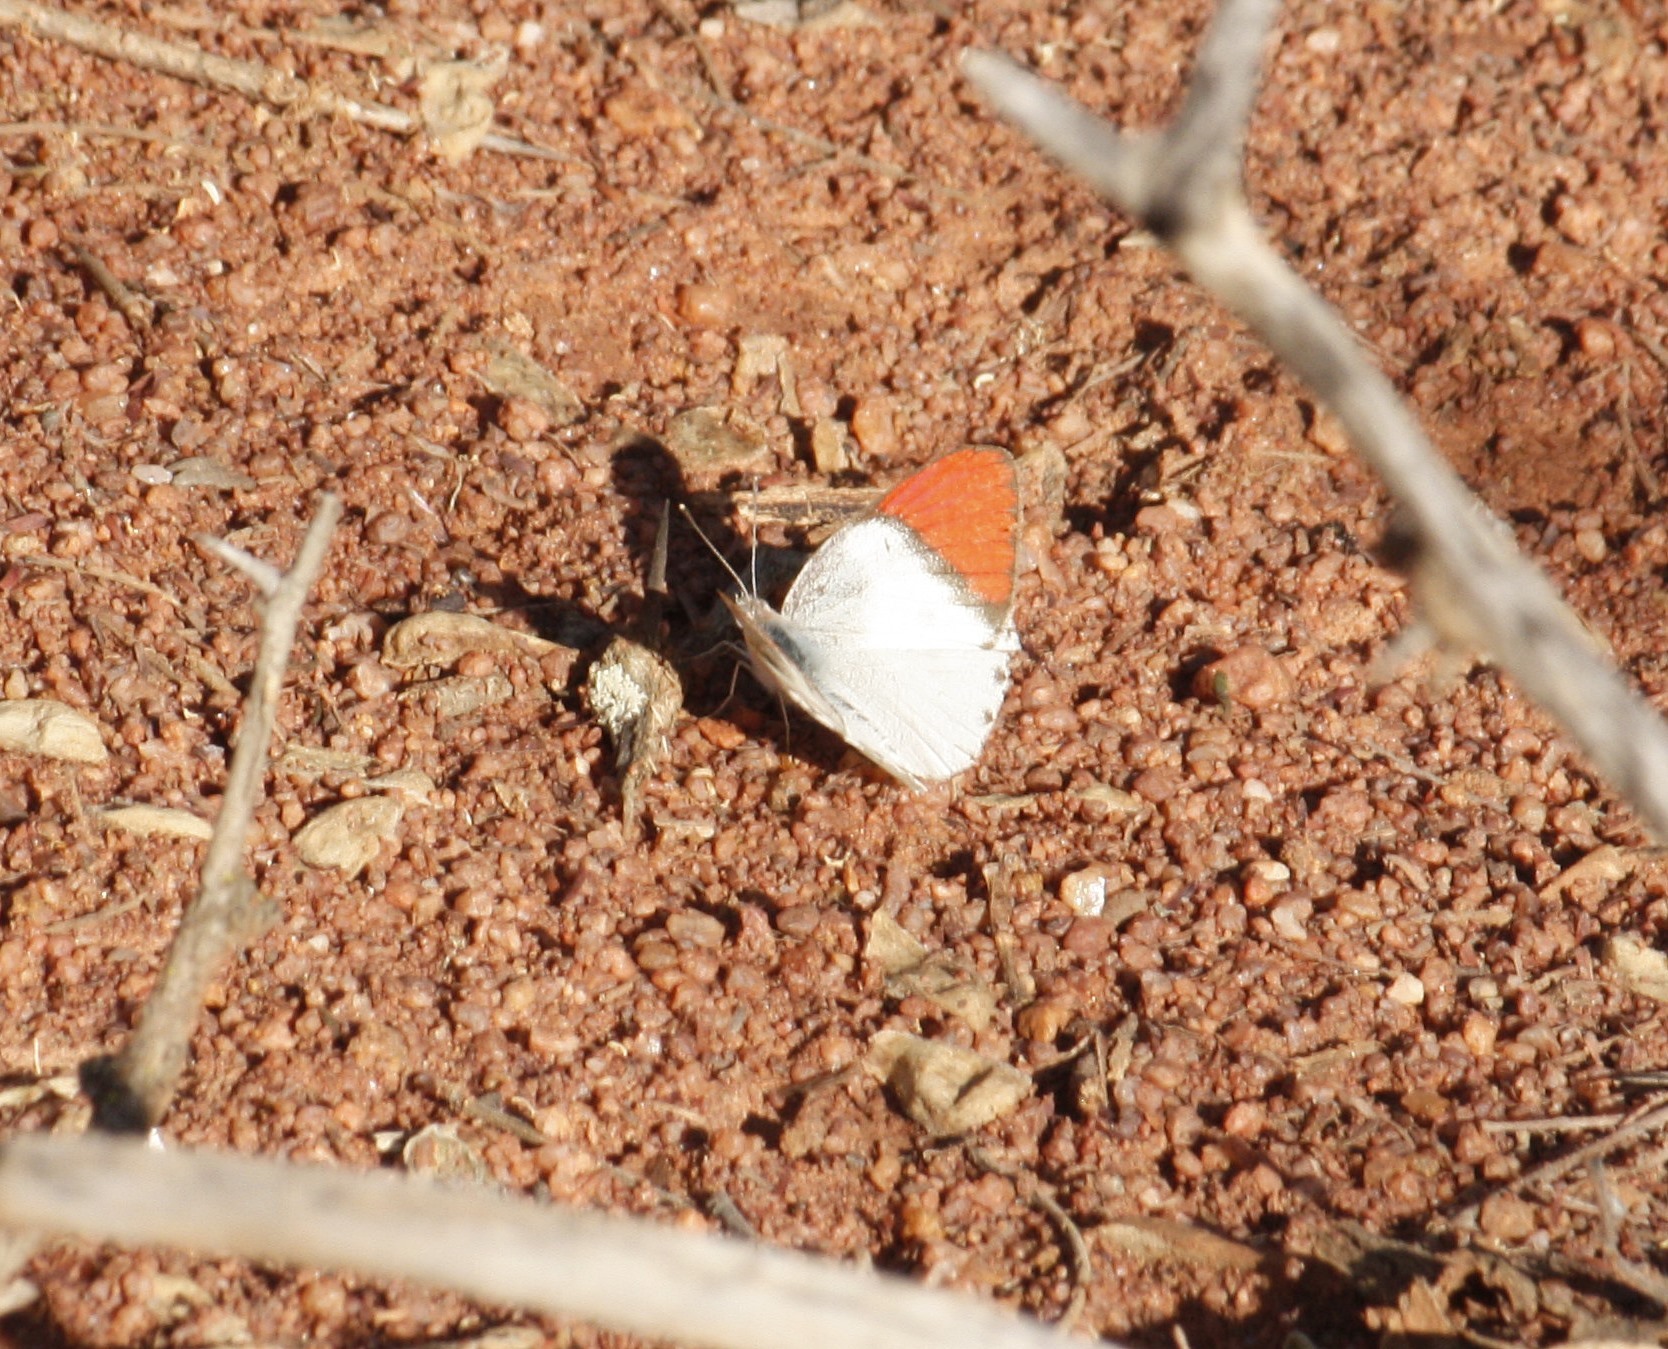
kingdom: Animalia
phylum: Arthropoda
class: Insecta
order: Lepidoptera
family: Pieridae
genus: Colotis
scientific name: Colotis annae
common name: Scarlet tip
